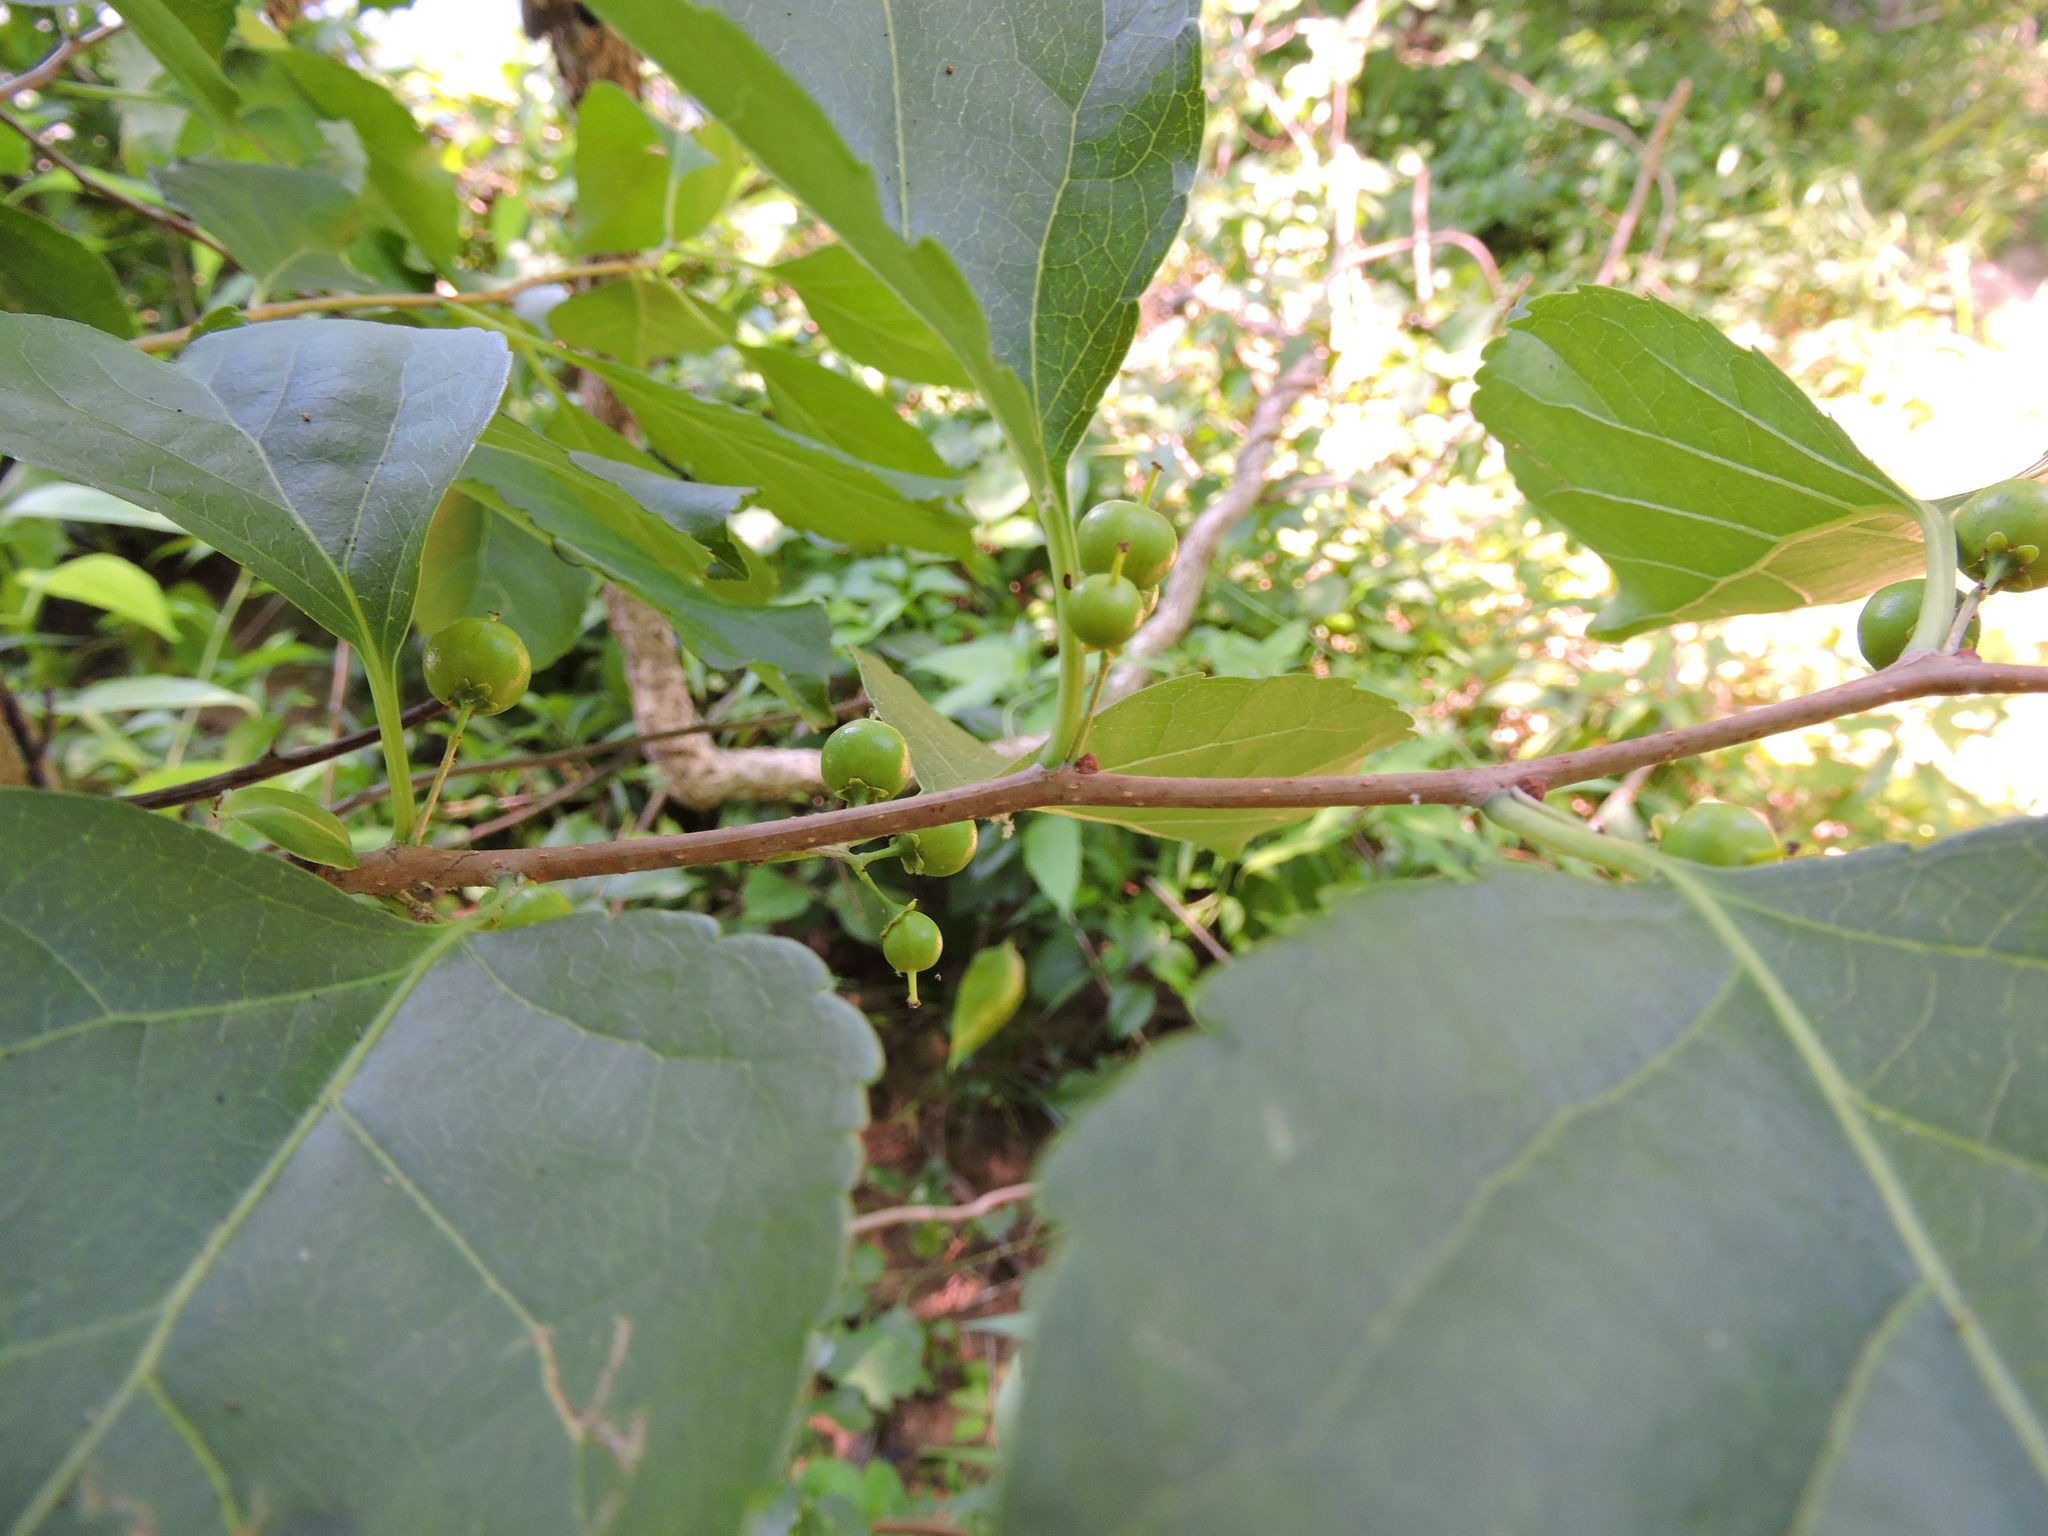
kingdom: Plantae
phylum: Tracheophyta
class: Magnoliopsida
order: Celastrales
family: Celastraceae
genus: Celastrus
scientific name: Celastrus orbiculatus
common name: Oriental bittersweet
